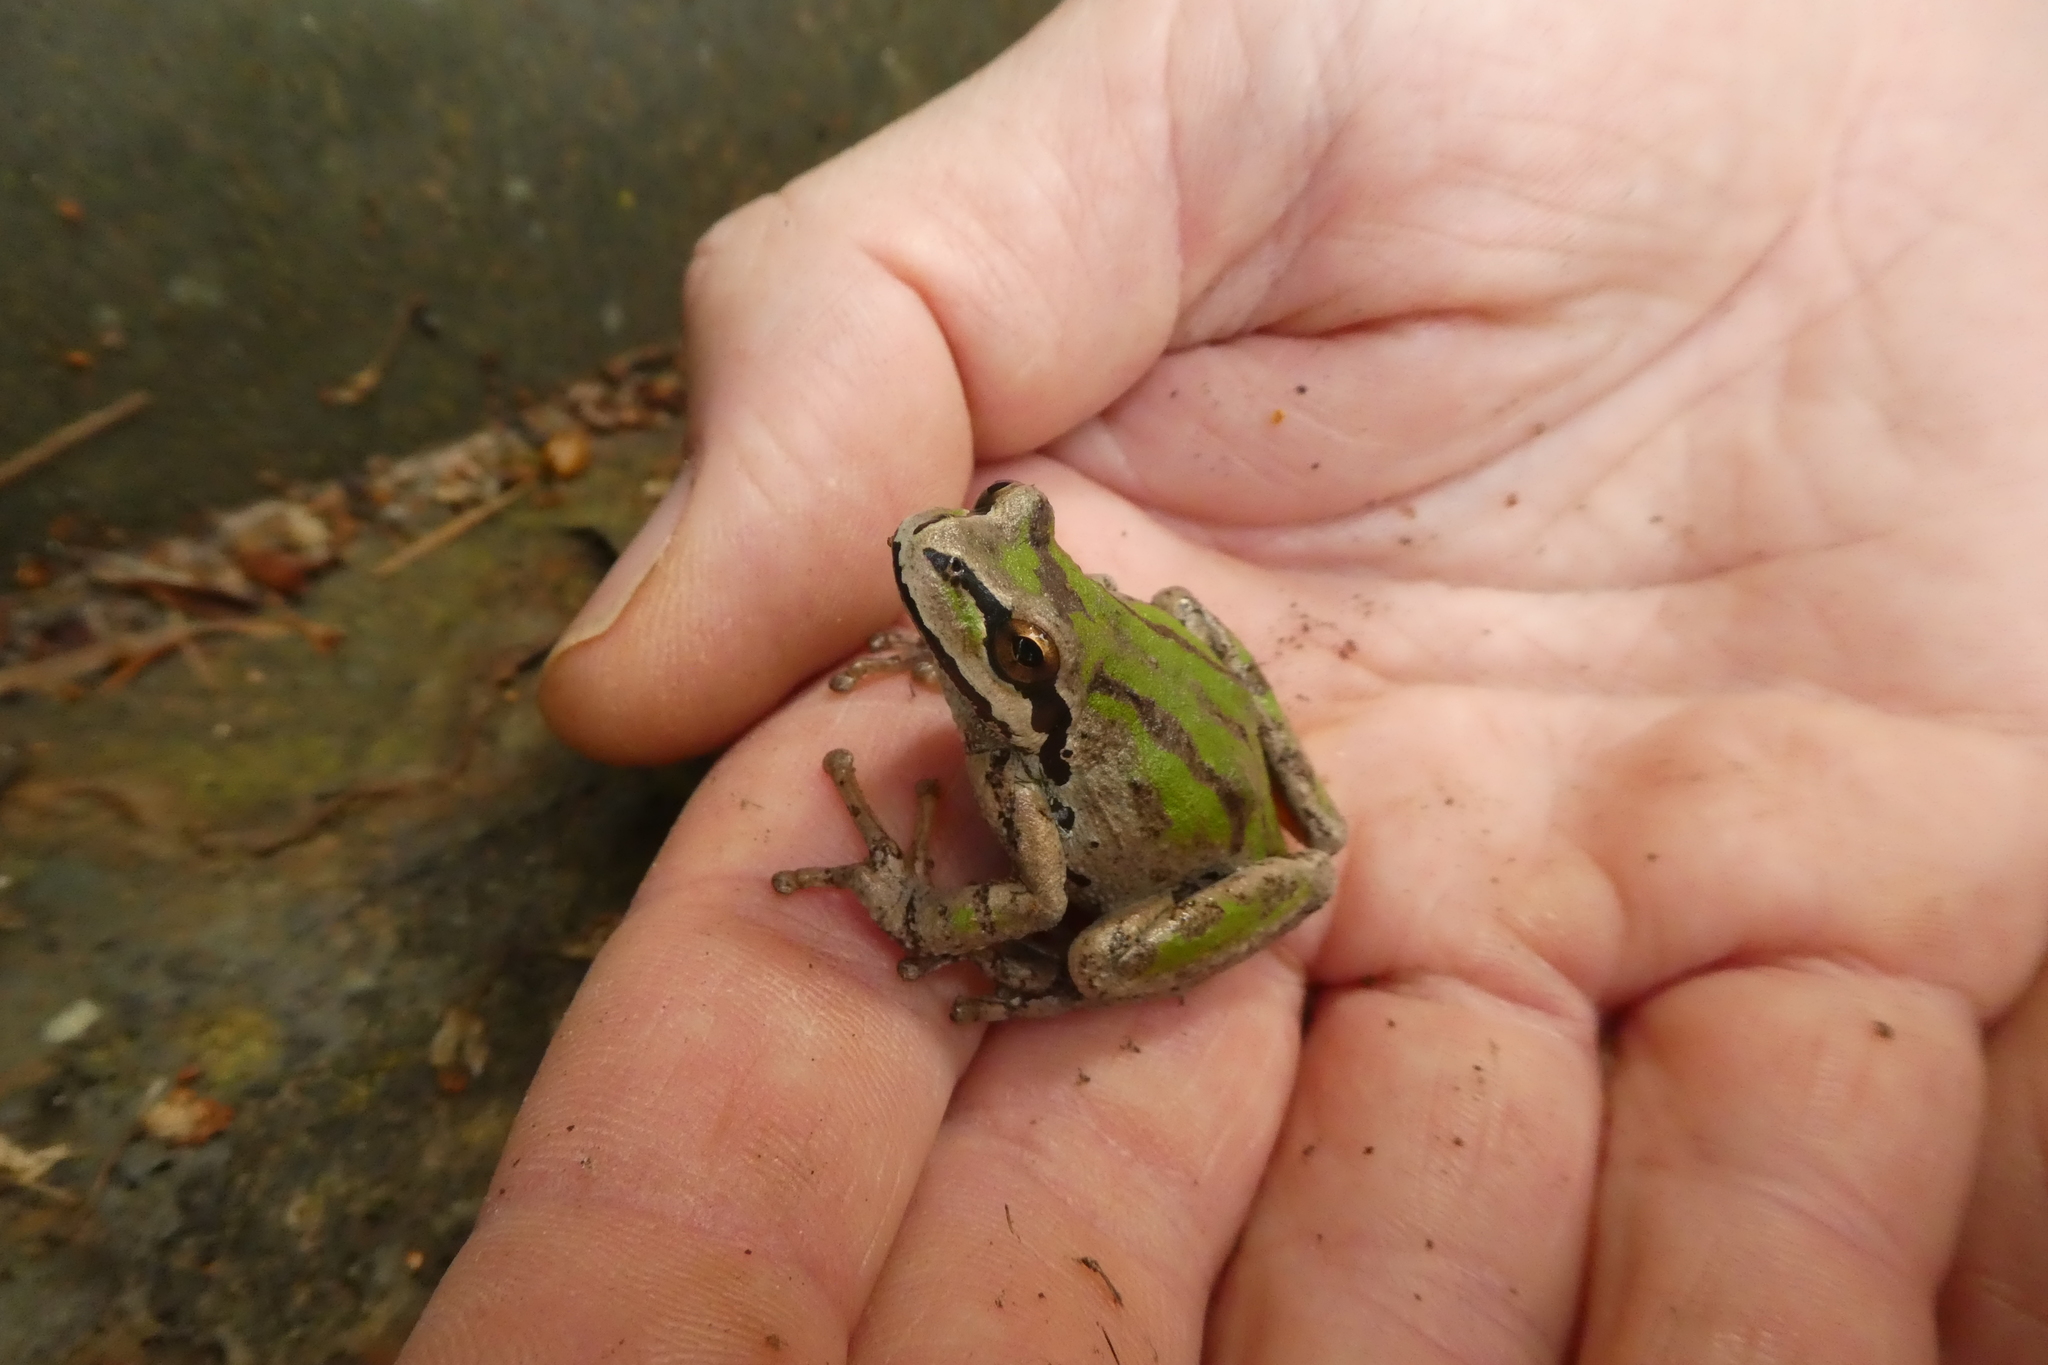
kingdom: Animalia
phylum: Chordata
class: Amphibia
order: Anura
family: Hylidae
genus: Pseudacris
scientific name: Pseudacris regilla
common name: Pacific chorus frog
